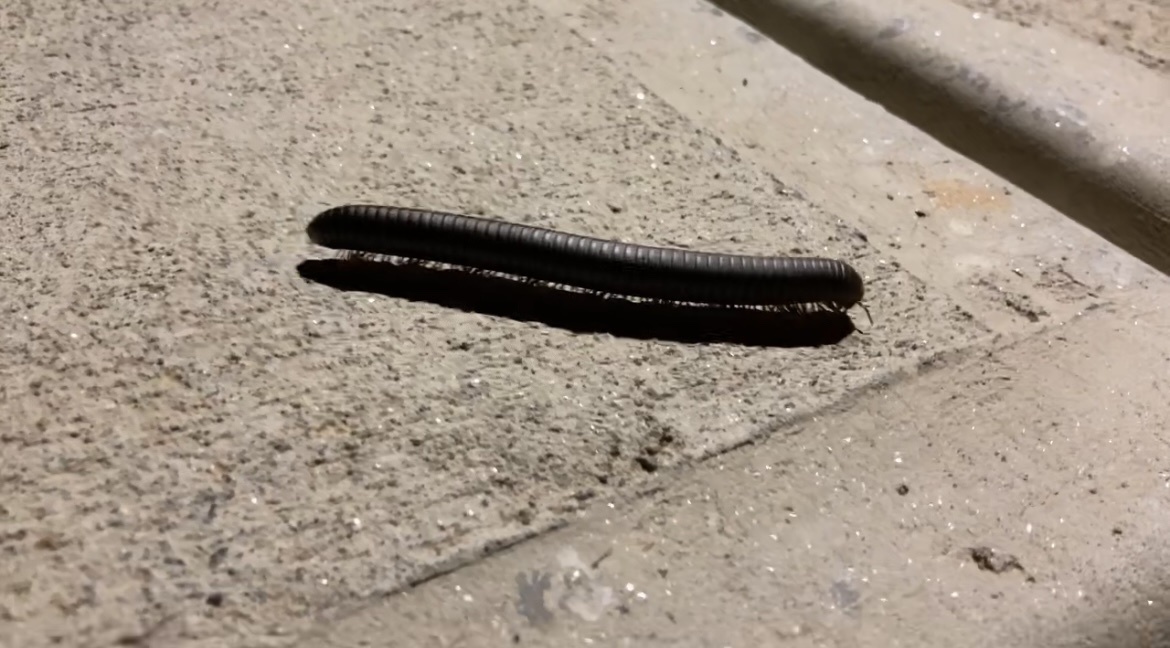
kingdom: Animalia
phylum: Arthropoda
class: Diplopoda
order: Spirobolida
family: Spirobolidae
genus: Narceus
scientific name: Narceus
